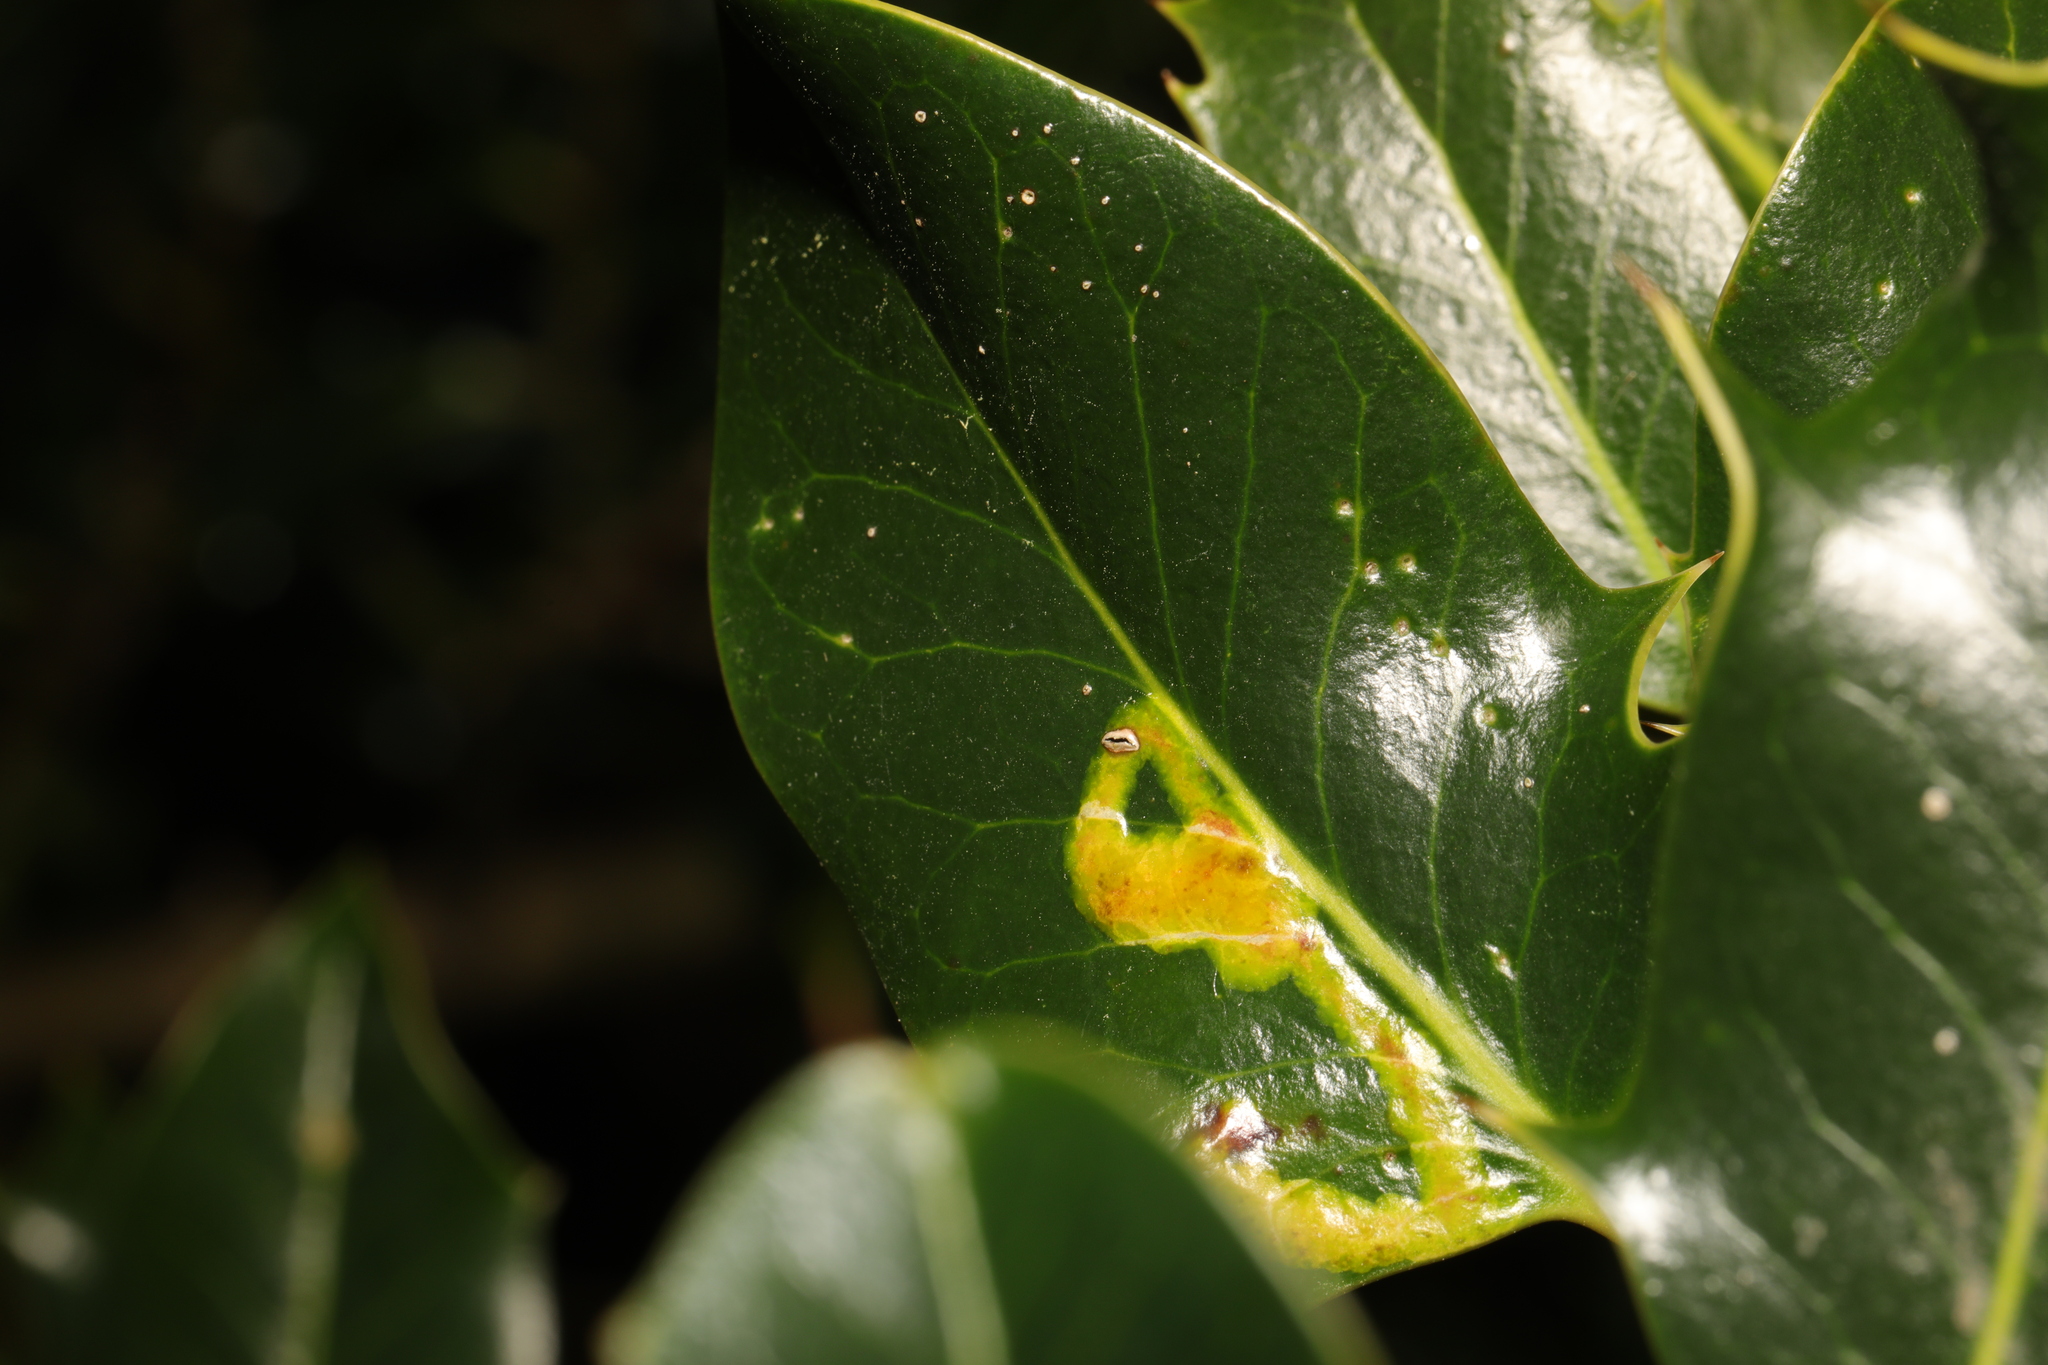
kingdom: Animalia
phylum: Arthropoda
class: Insecta
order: Diptera
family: Agromyzidae
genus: Phytomyza
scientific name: Phytomyza ilicis
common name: Holly leafminer
